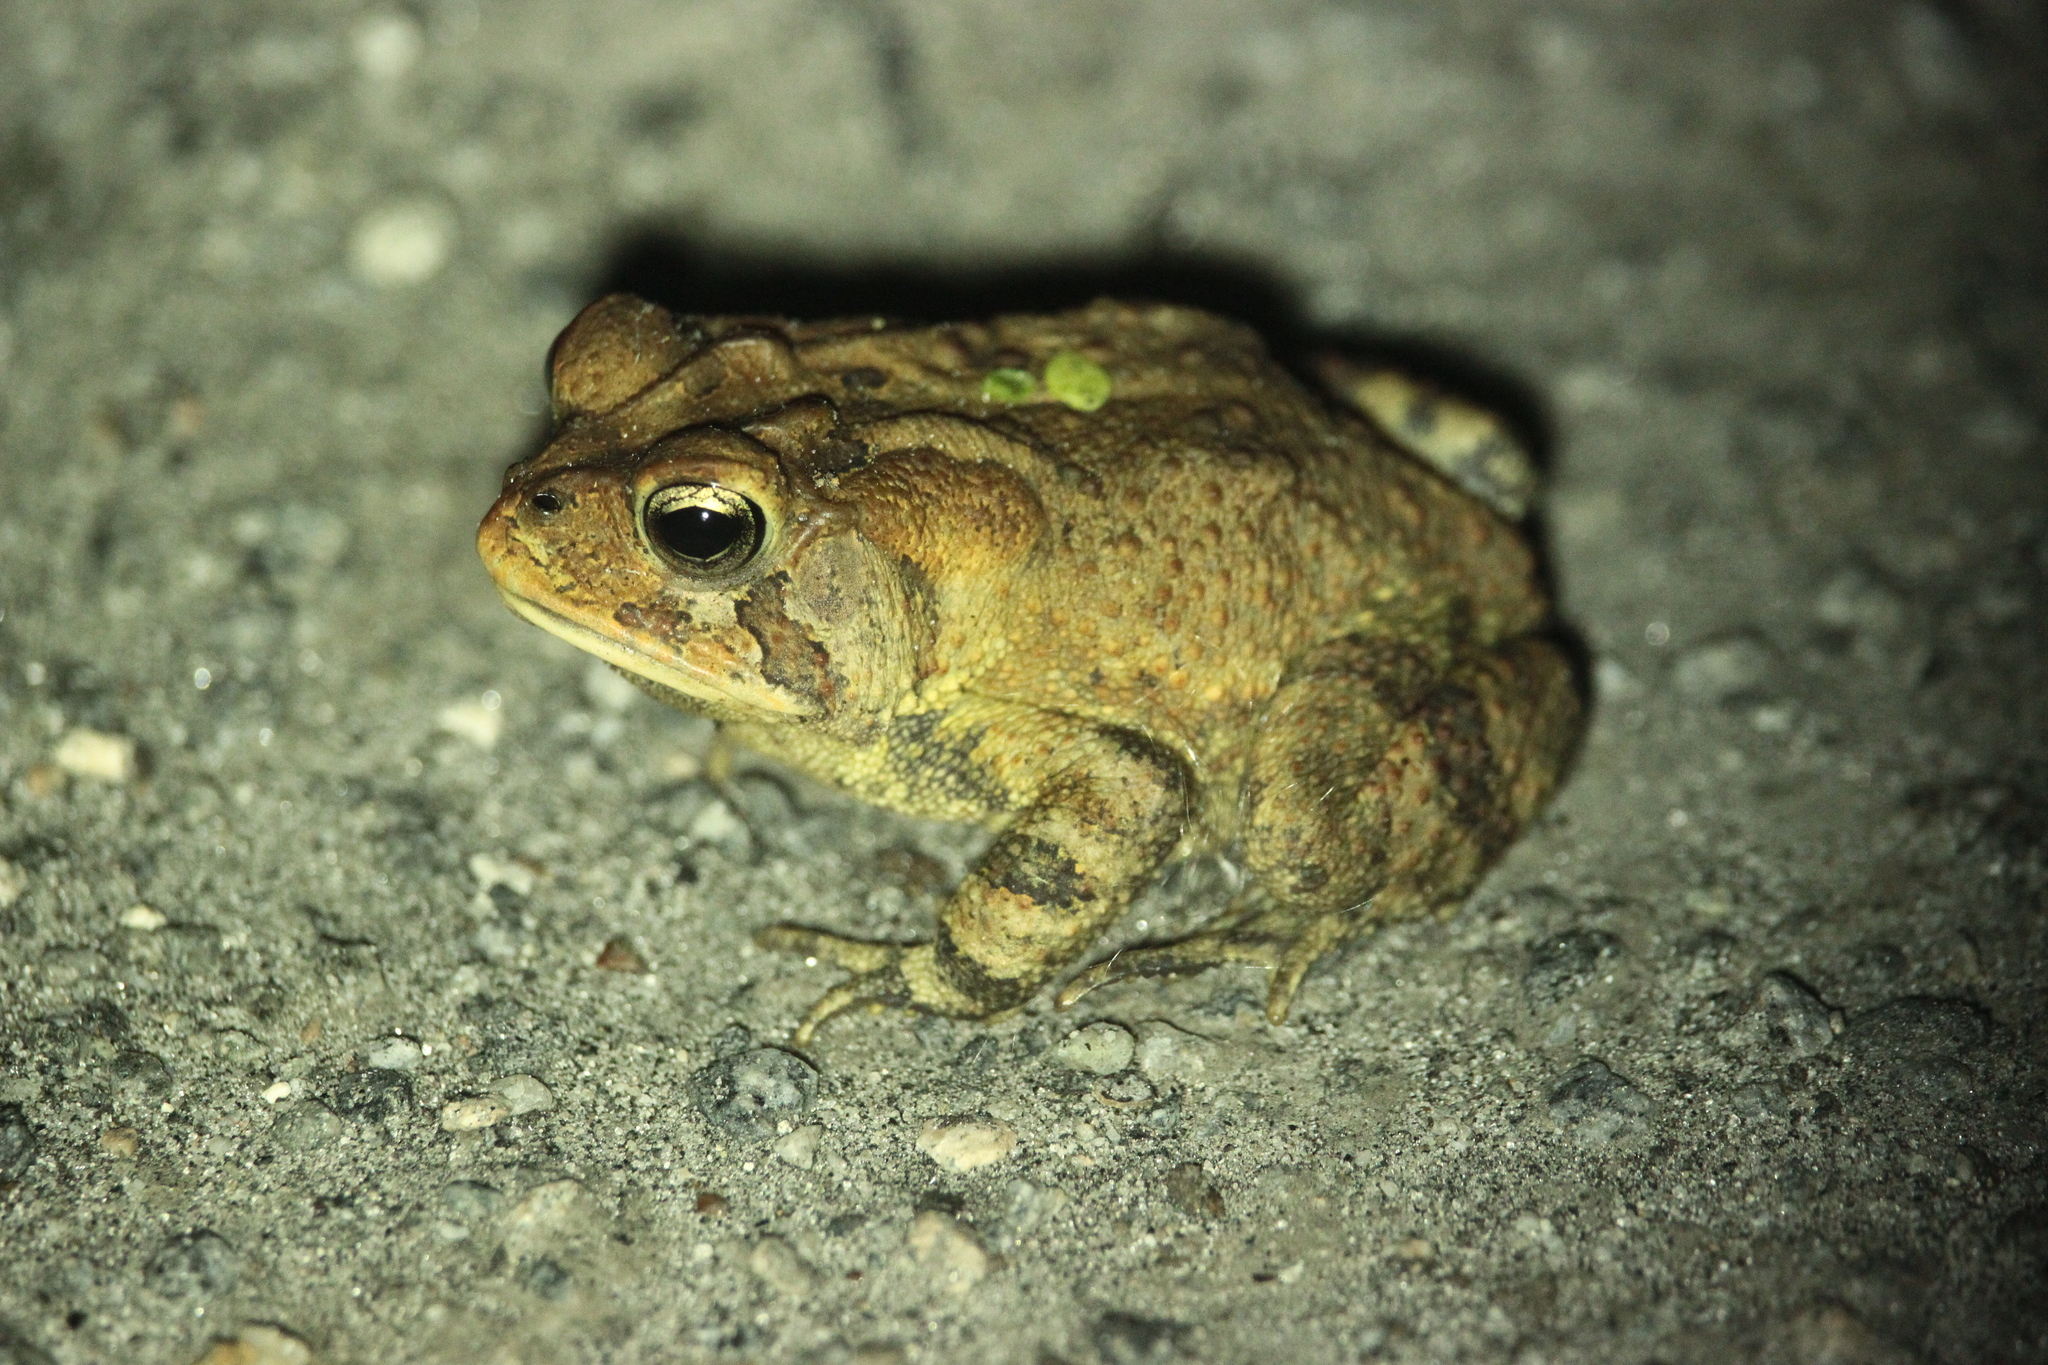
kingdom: Animalia
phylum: Chordata
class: Amphibia
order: Anura
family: Bufonidae
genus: Anaxyrus
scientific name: Anaxyrus terrestris
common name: Southern toad
